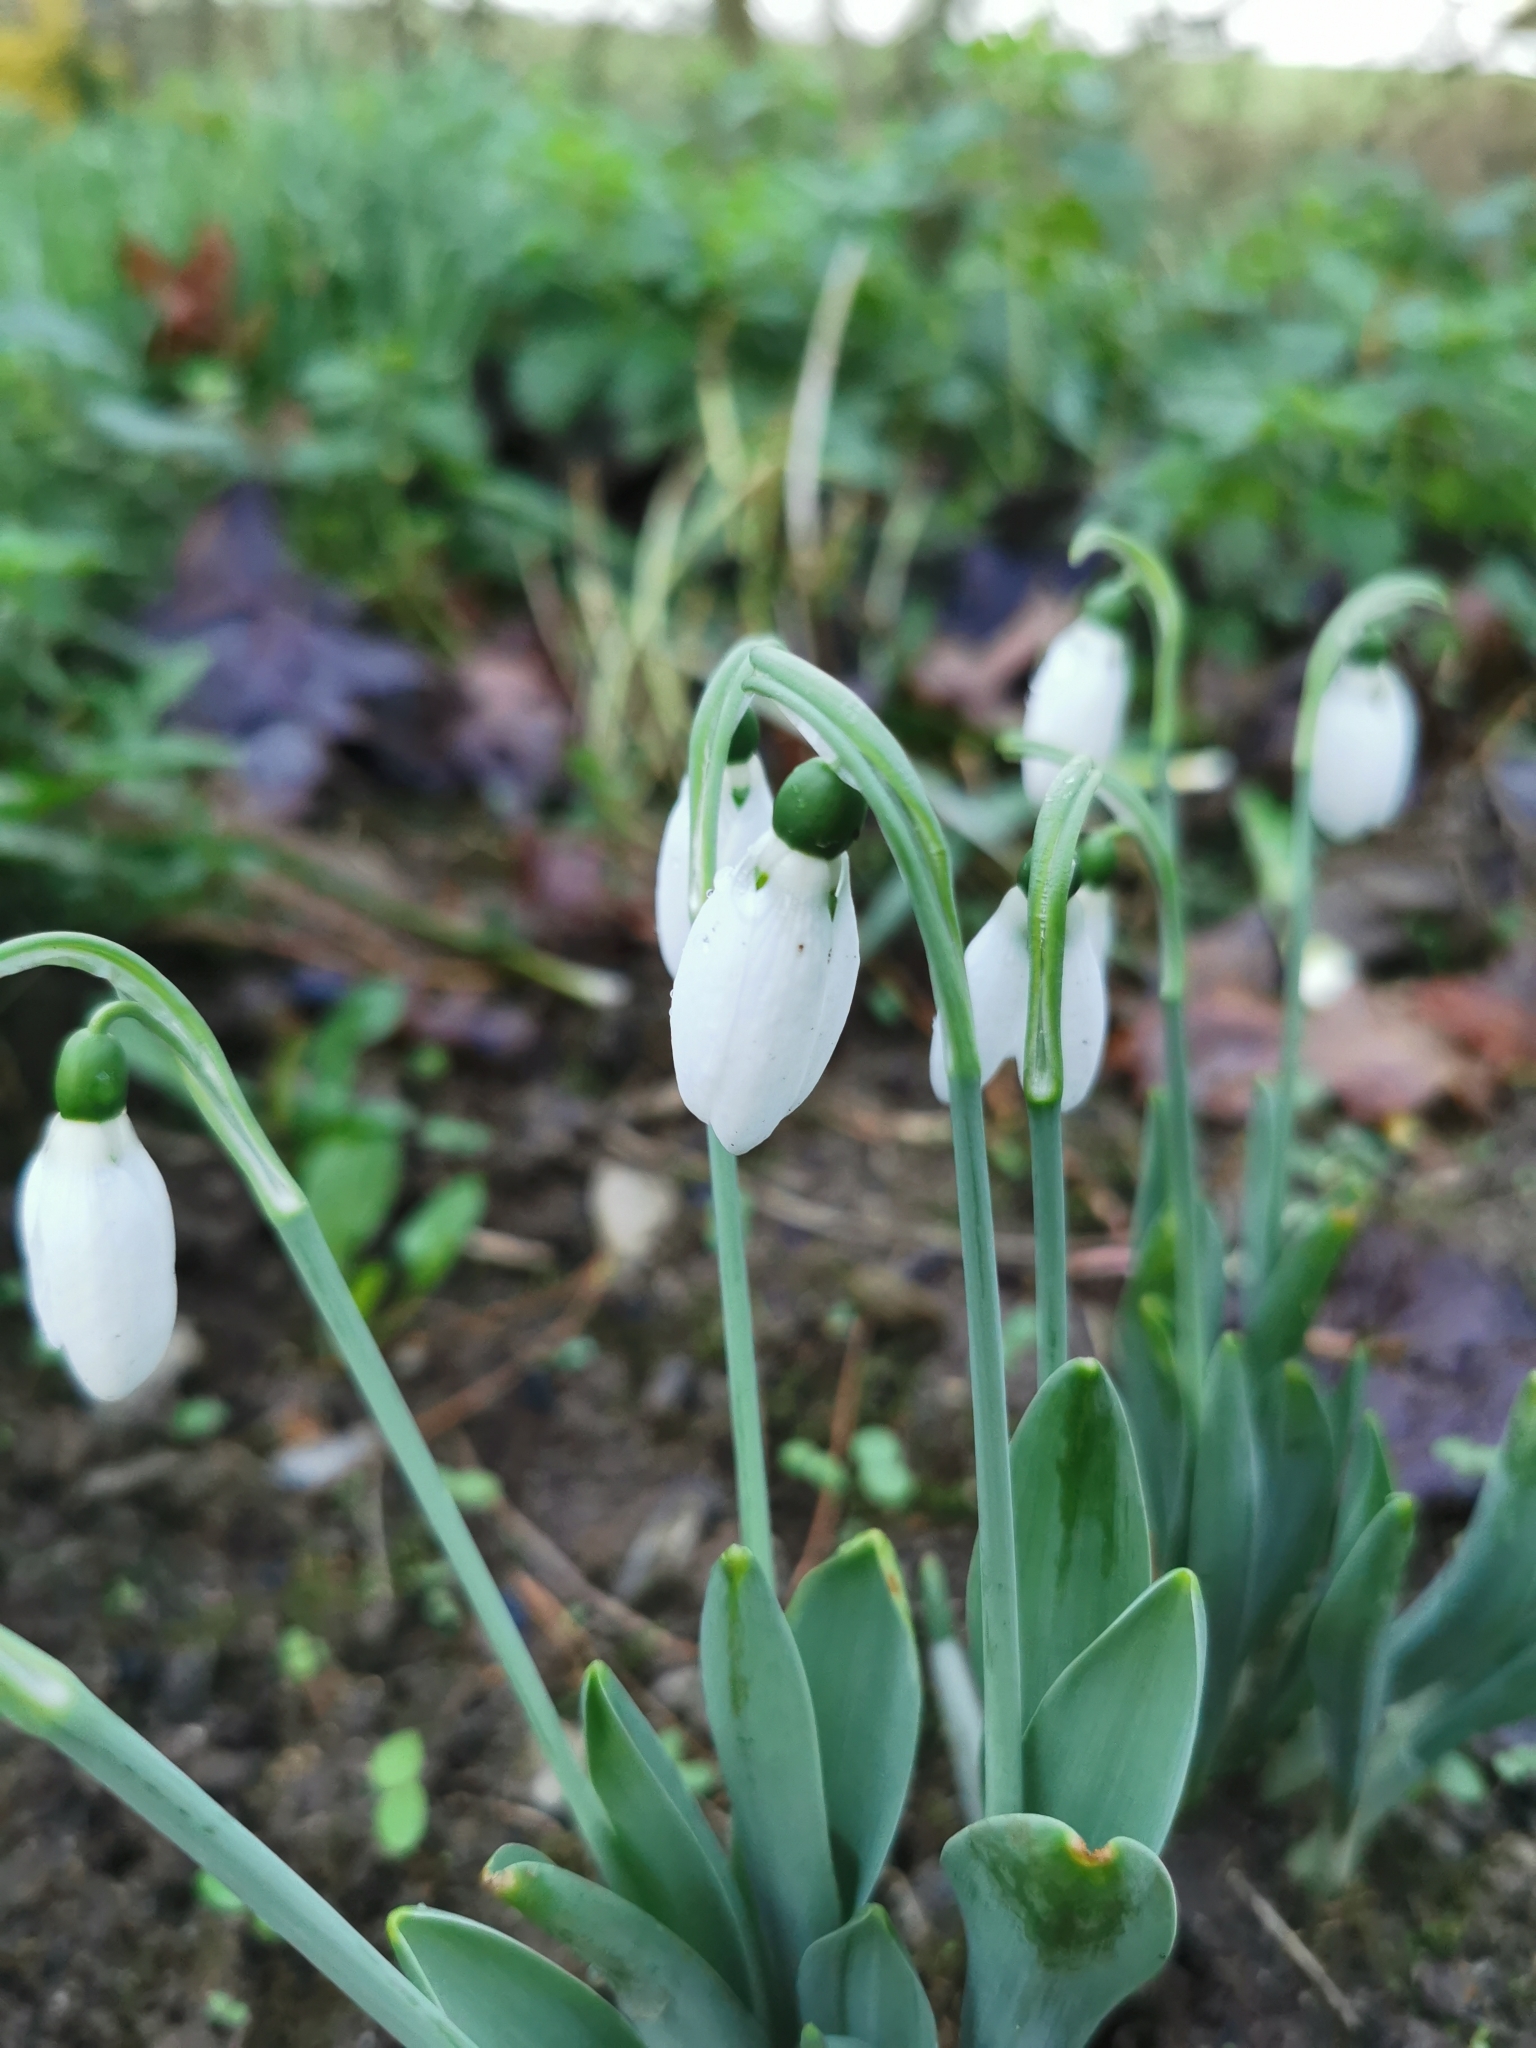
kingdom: Plantae
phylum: Tracheophyta
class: Liliopsida
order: Asparagales
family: Amaryllidaceae
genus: Galanthus
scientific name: Galanthus elwesii
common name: Greater snowdrop
